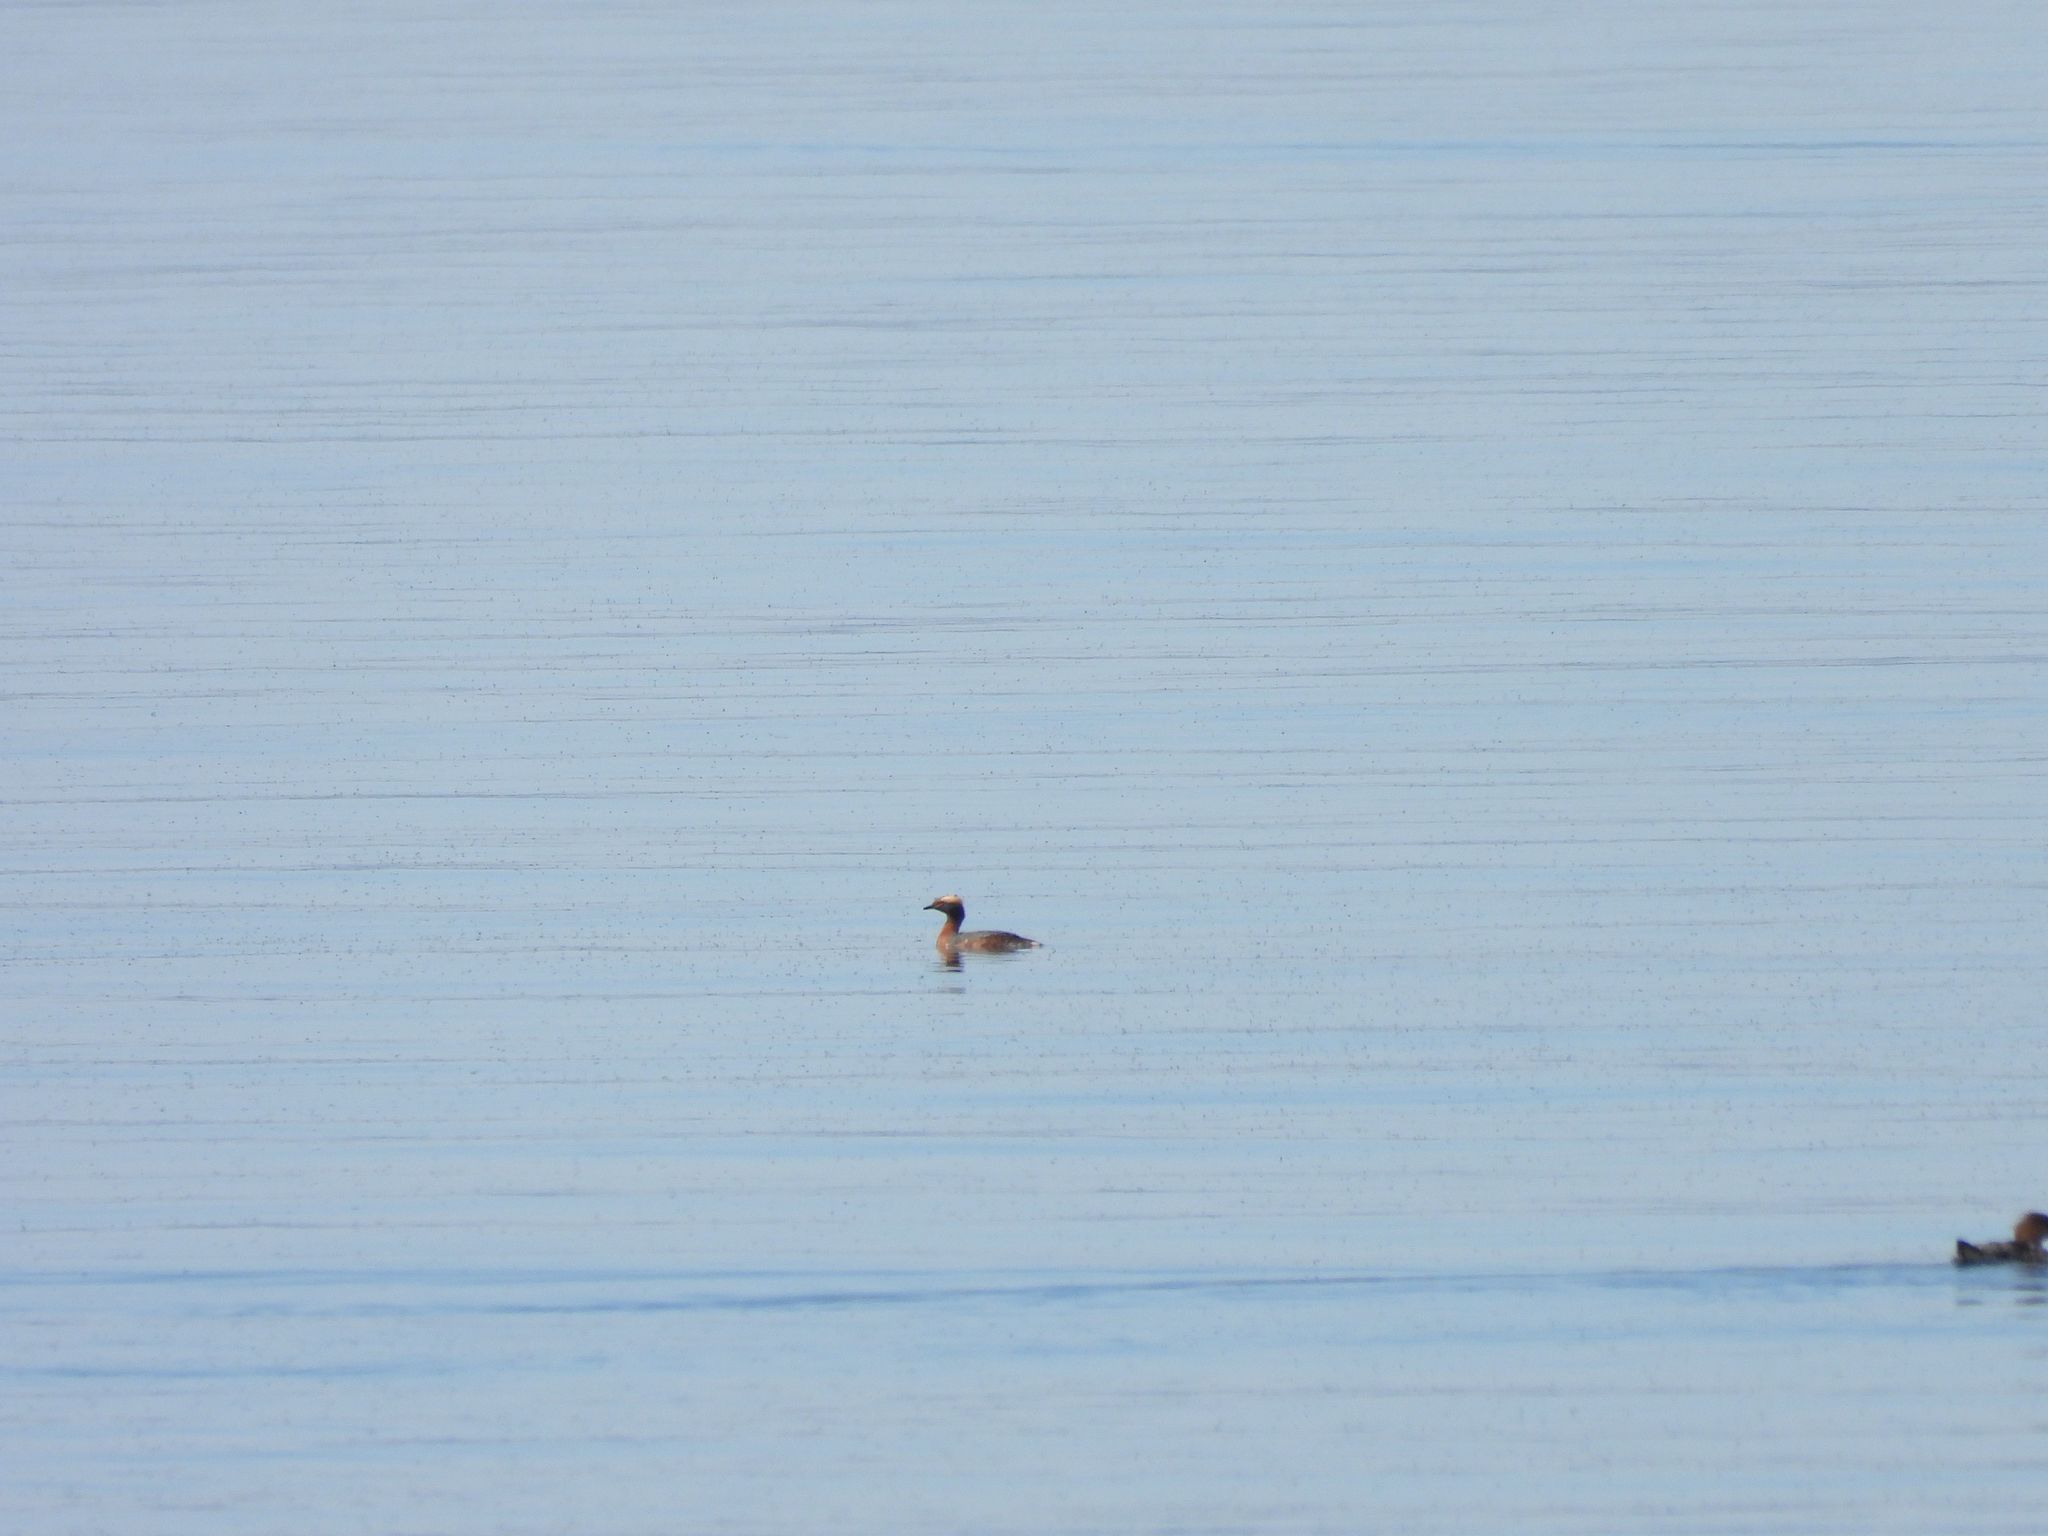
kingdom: Animalia
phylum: Chordata
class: Aves
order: Podicipediformes
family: Podicipedidae
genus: Podiceps
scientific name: Podiceps auritus
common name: Horned grebe
